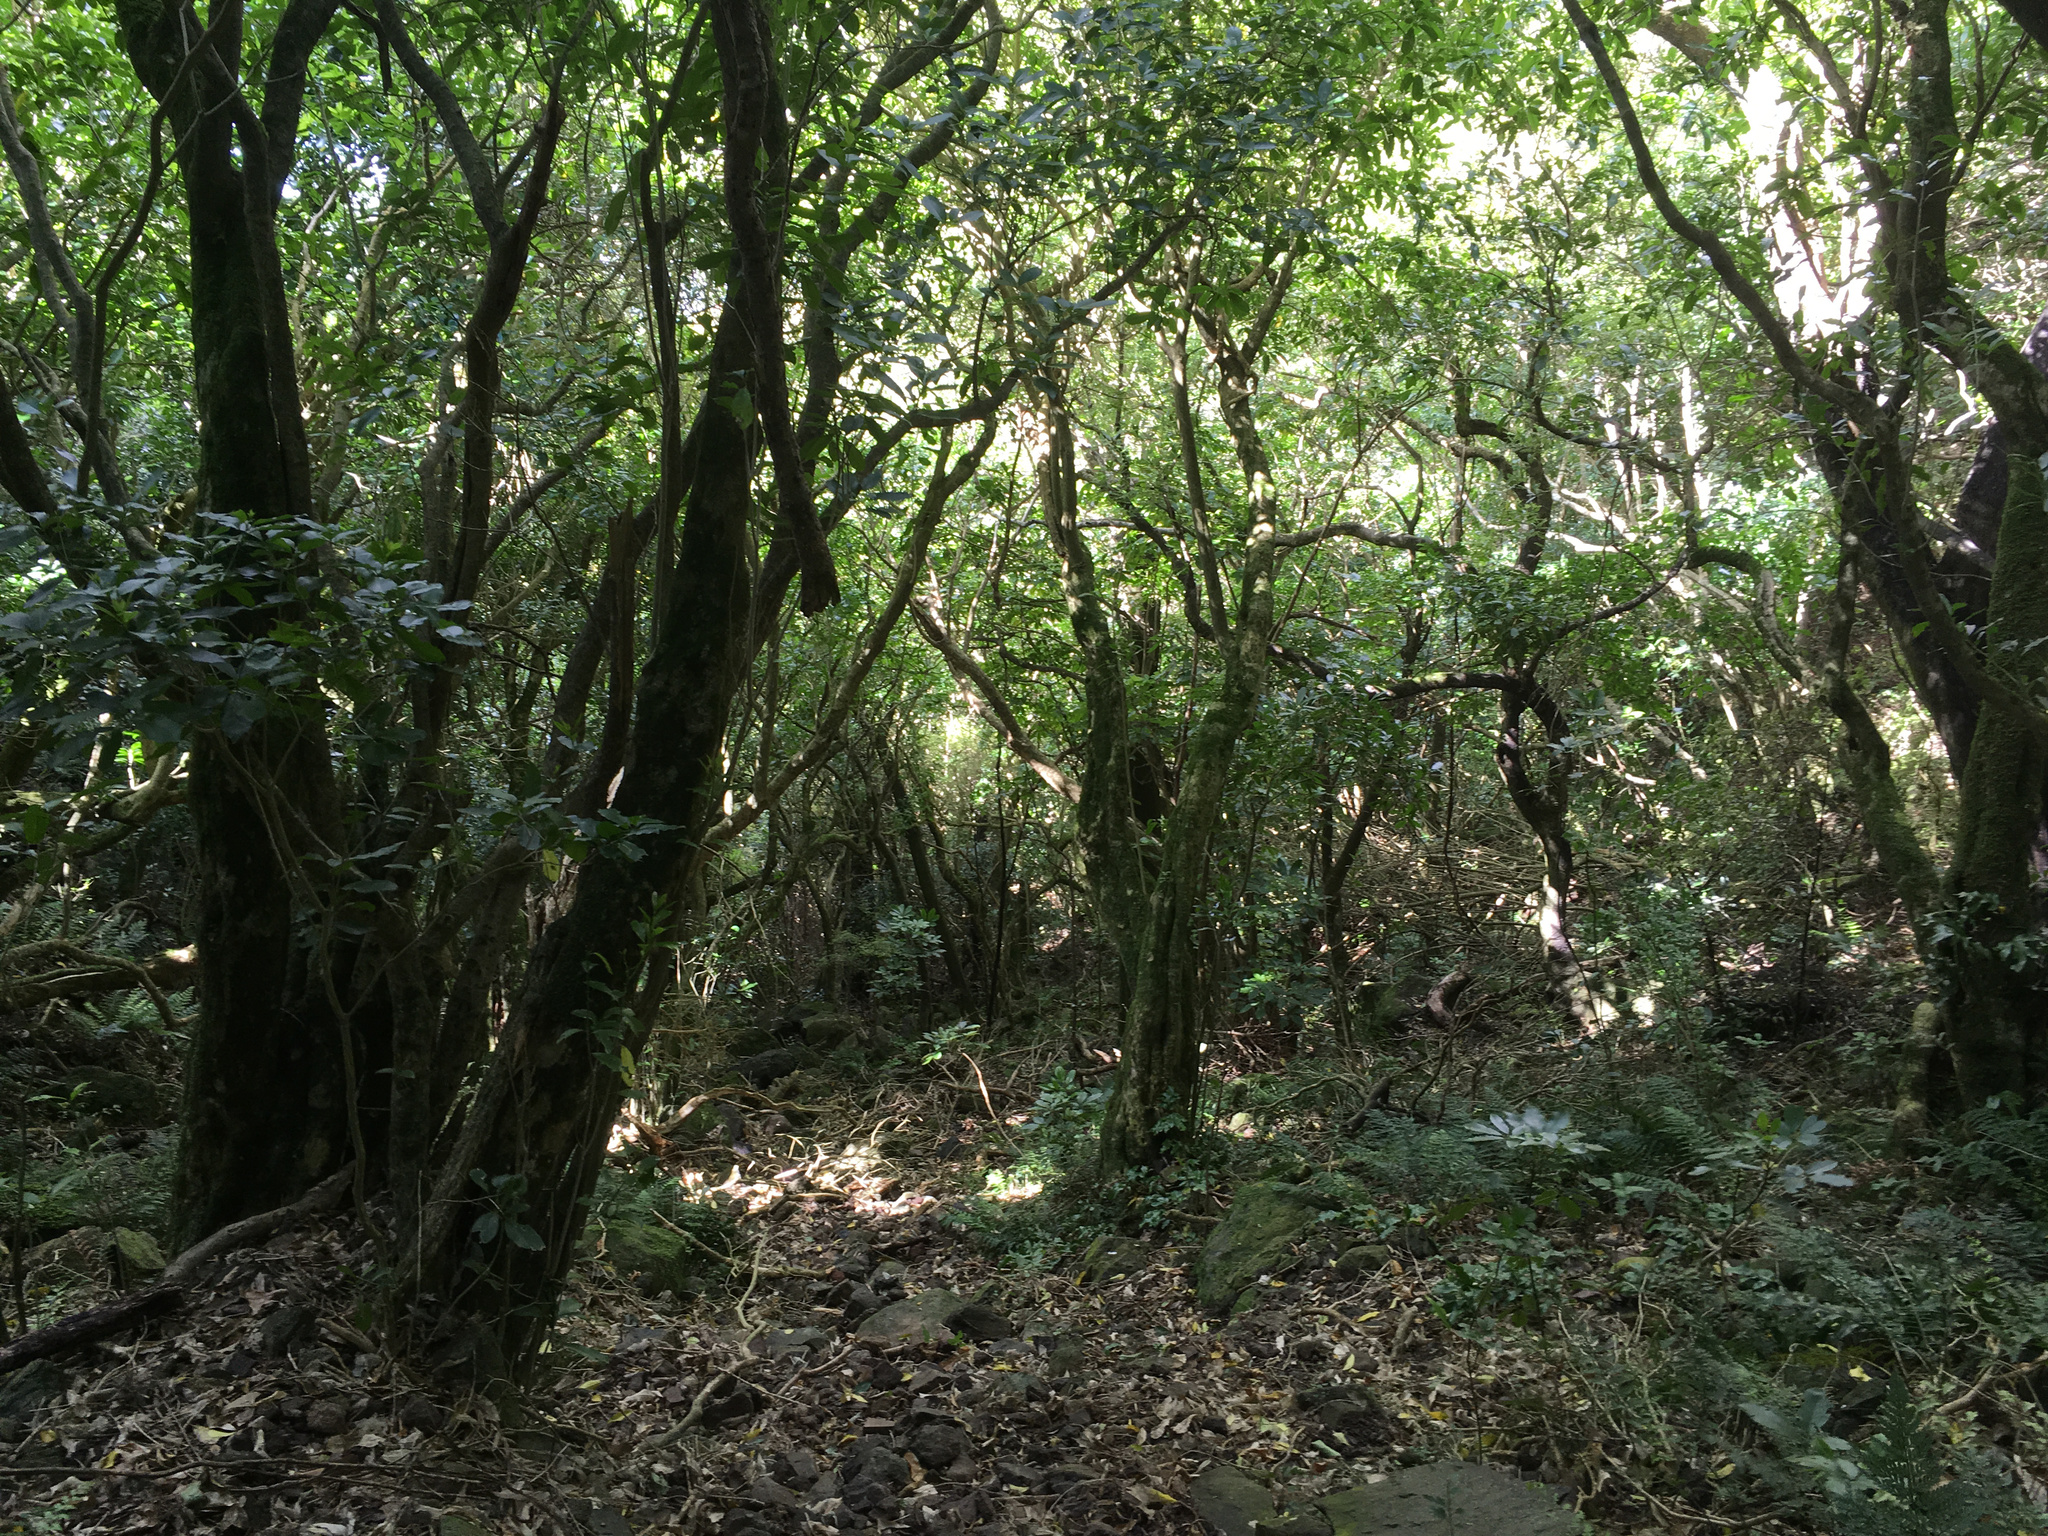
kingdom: Plantae
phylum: Tracheophyta
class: Magnoliopsida
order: Malpighiales
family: Violaceae
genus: Melicytus
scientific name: Melicytus ramiflorus
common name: Mahoe
